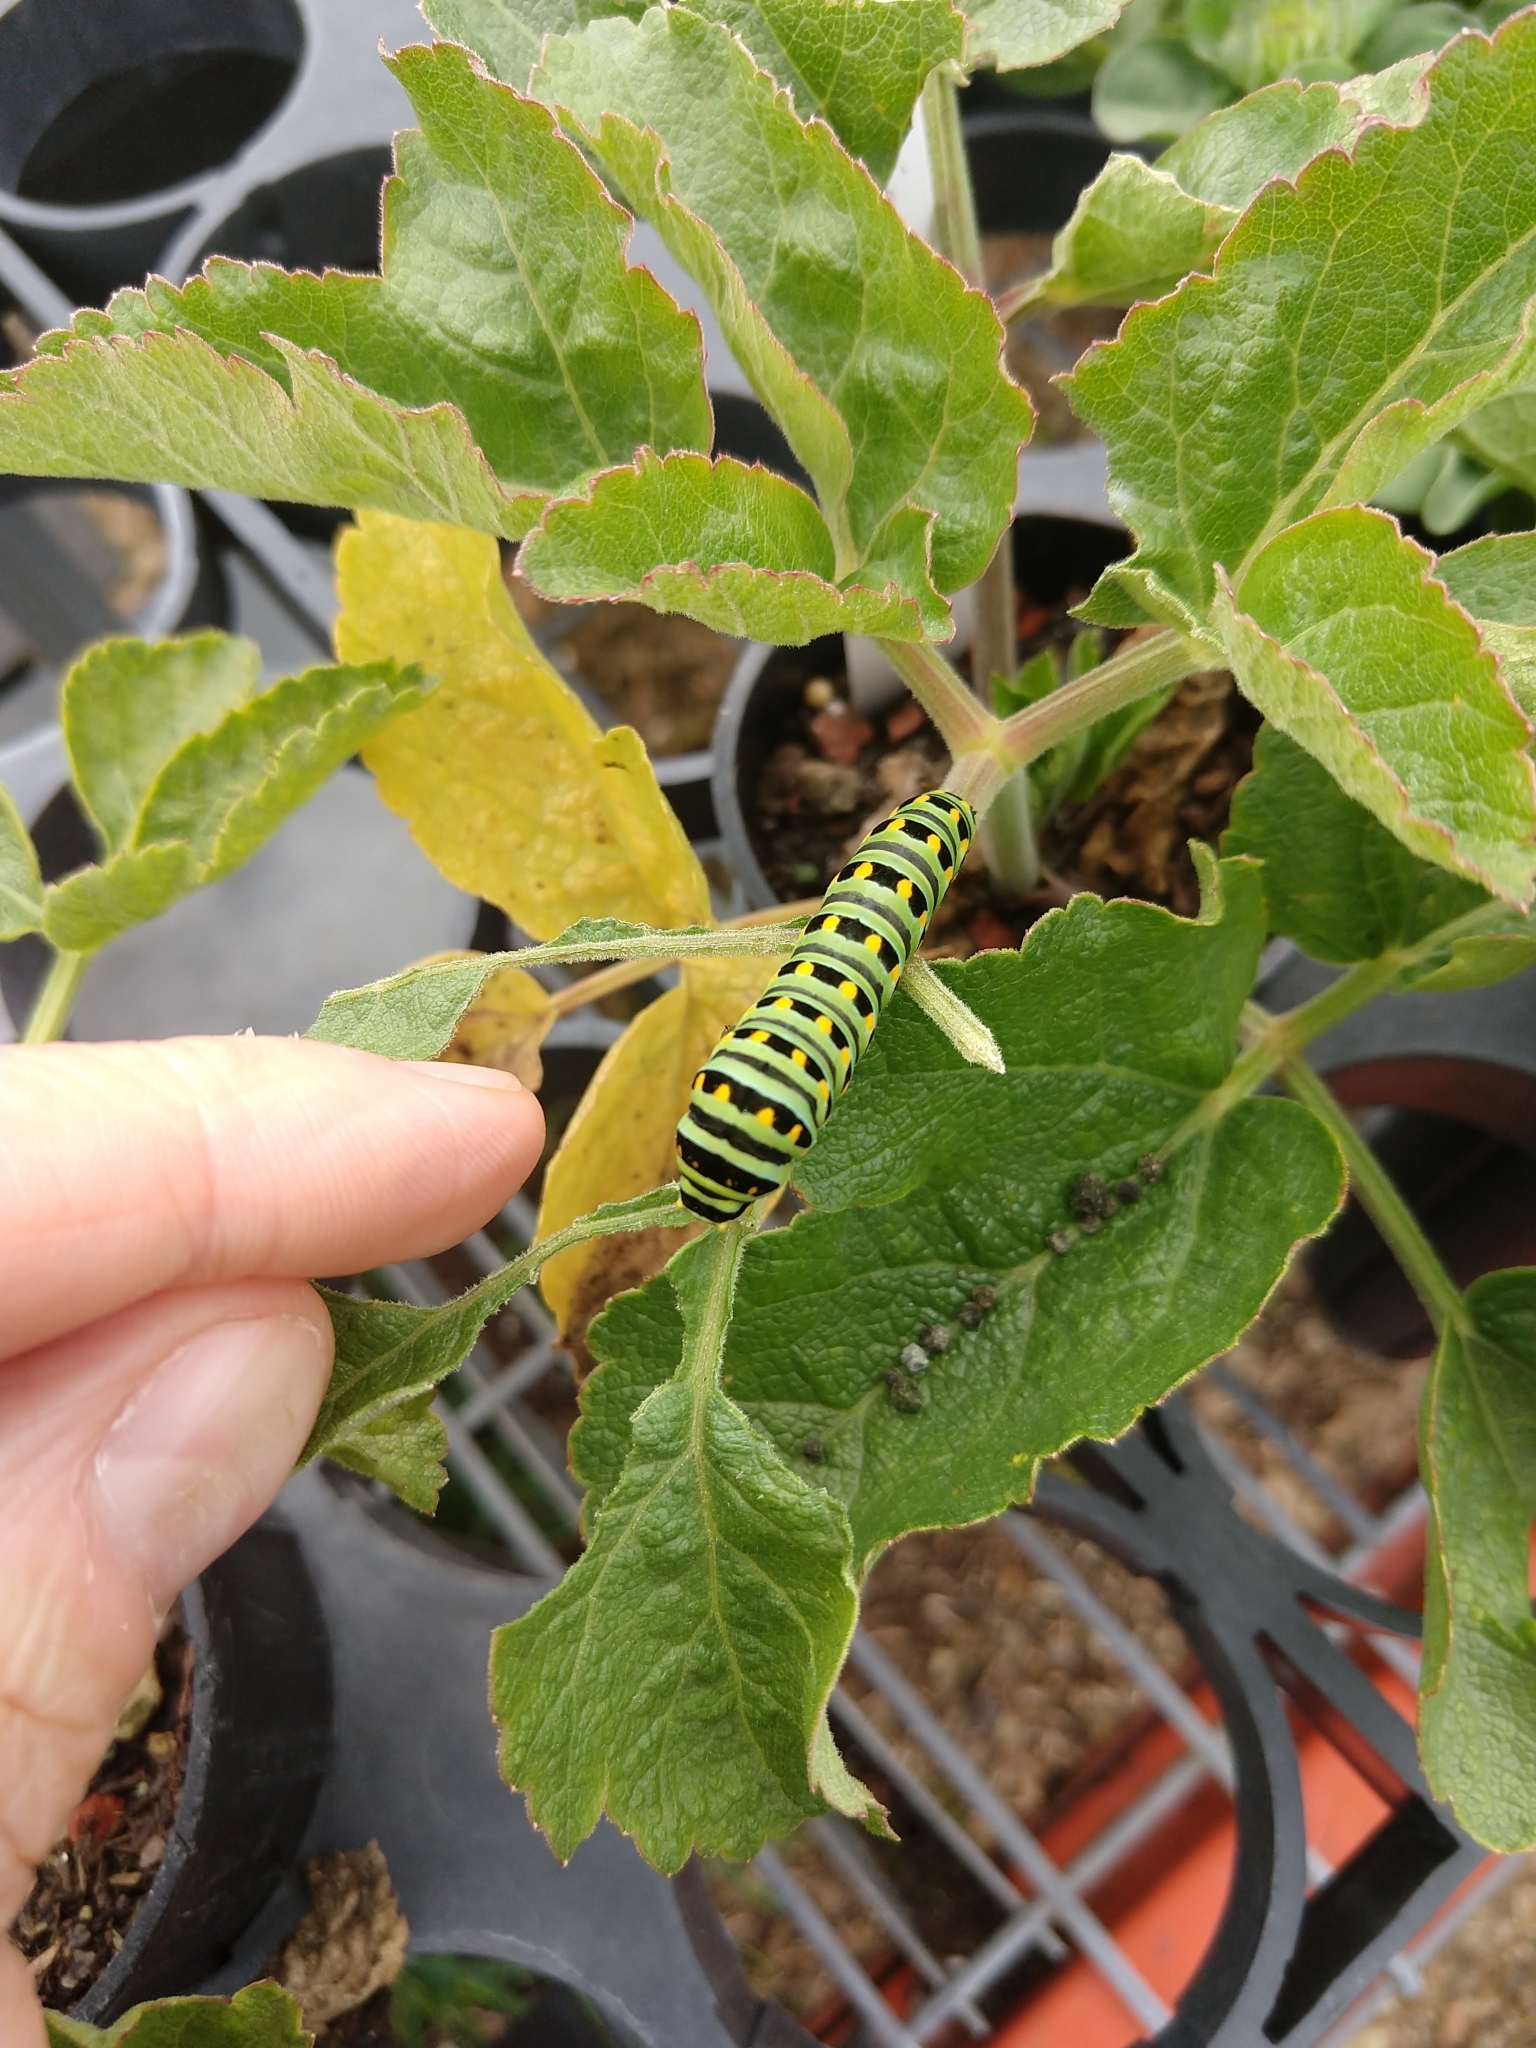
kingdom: Animalia
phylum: Arthropoda
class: Insecta
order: Lepidoptera
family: Papilionidae
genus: Papilio
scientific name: Papilio zelicaon
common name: Anise swallowtail
